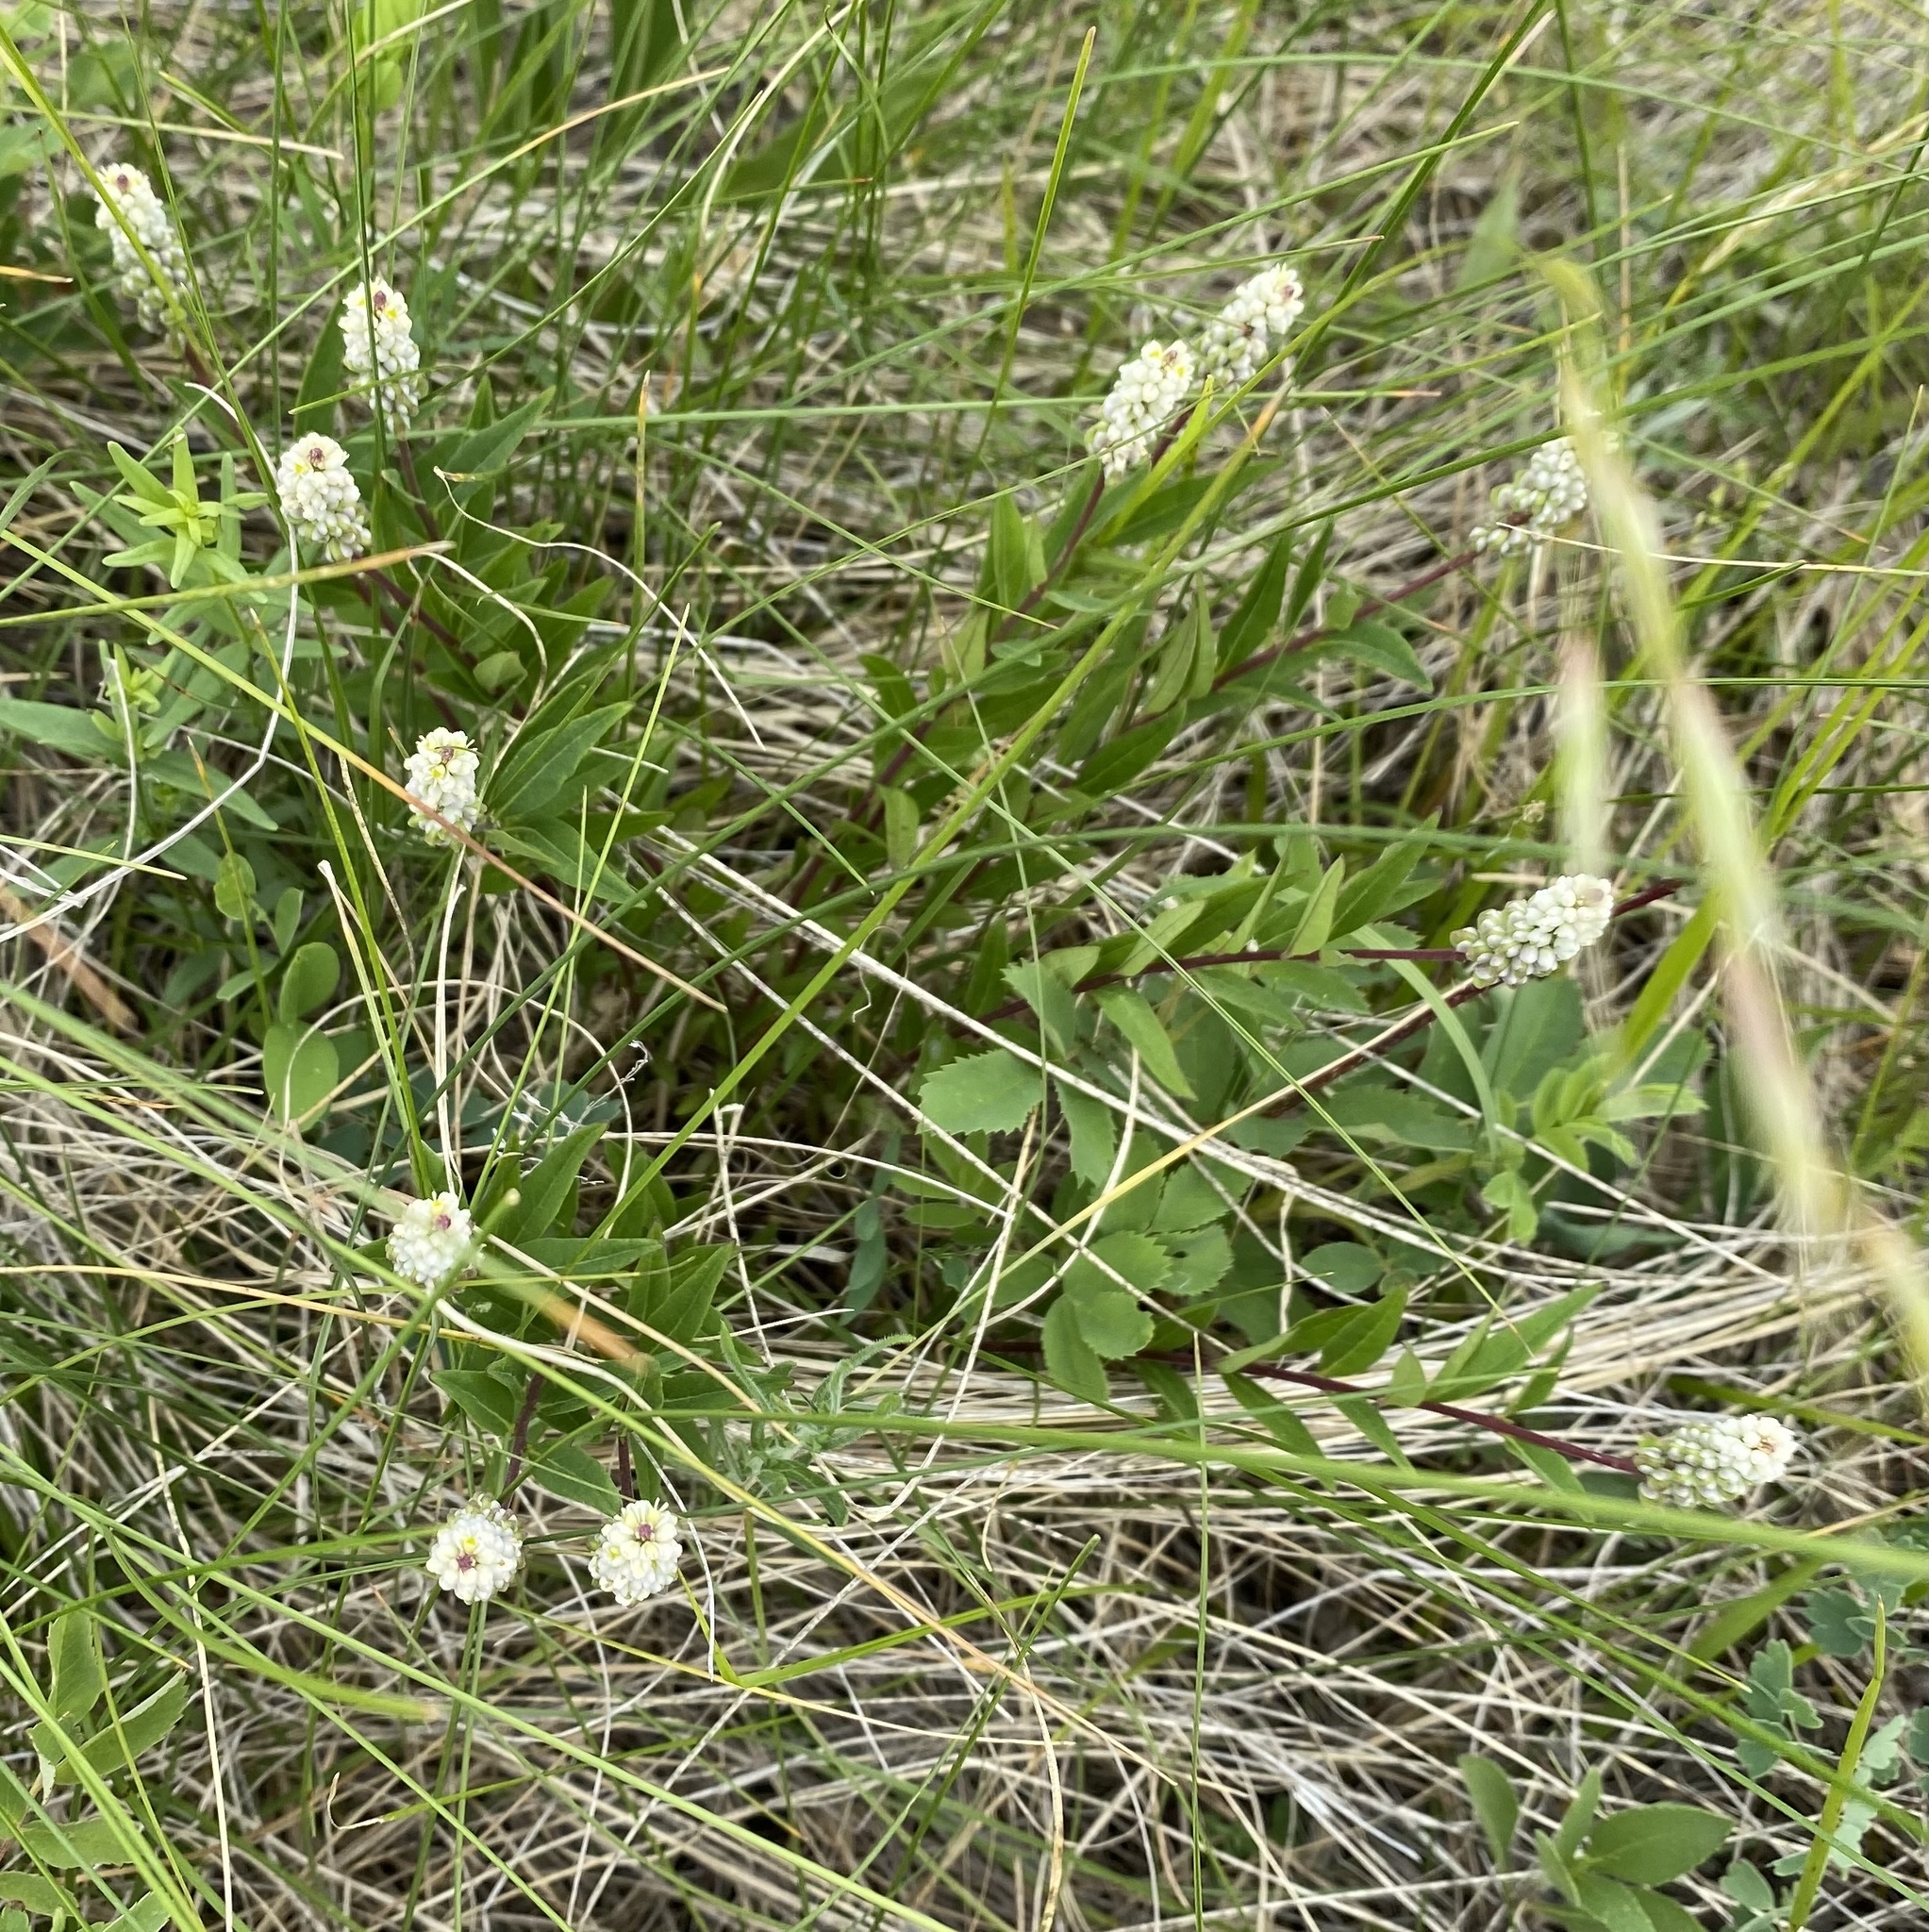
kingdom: Plantae
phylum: Tracheophyta
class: Magnoliopsida
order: Fabales
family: Polygalaceae
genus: Polygala
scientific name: Polygala senega
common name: Seneca snakeroot
